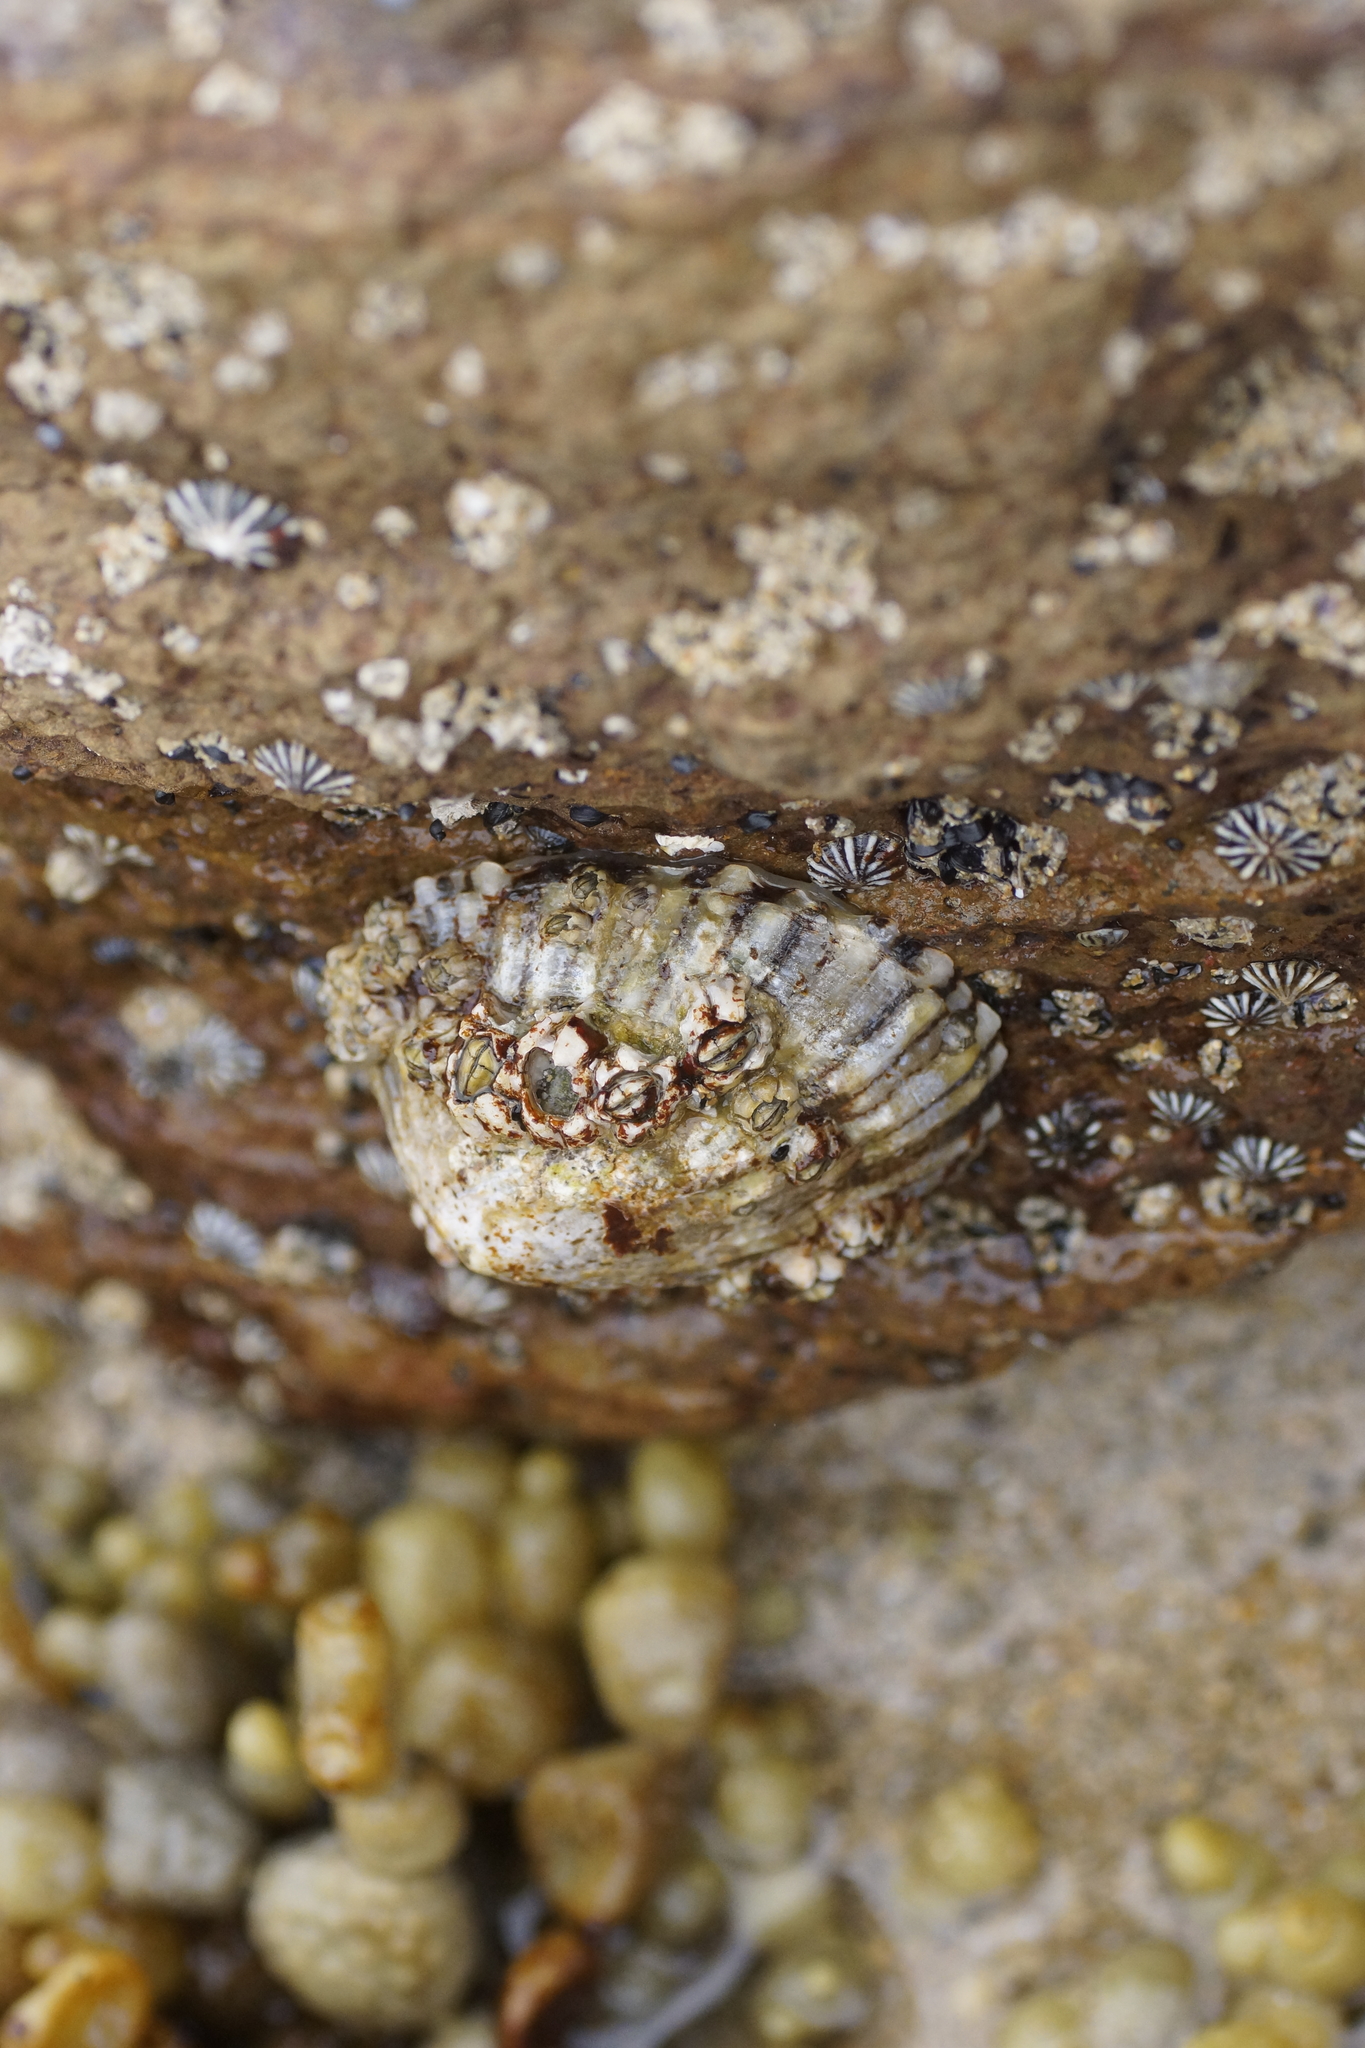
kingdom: Animalia
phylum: Mollusca
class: Gastropoda
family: Nacellidae
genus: Cellana
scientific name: Cellana tramoserica
